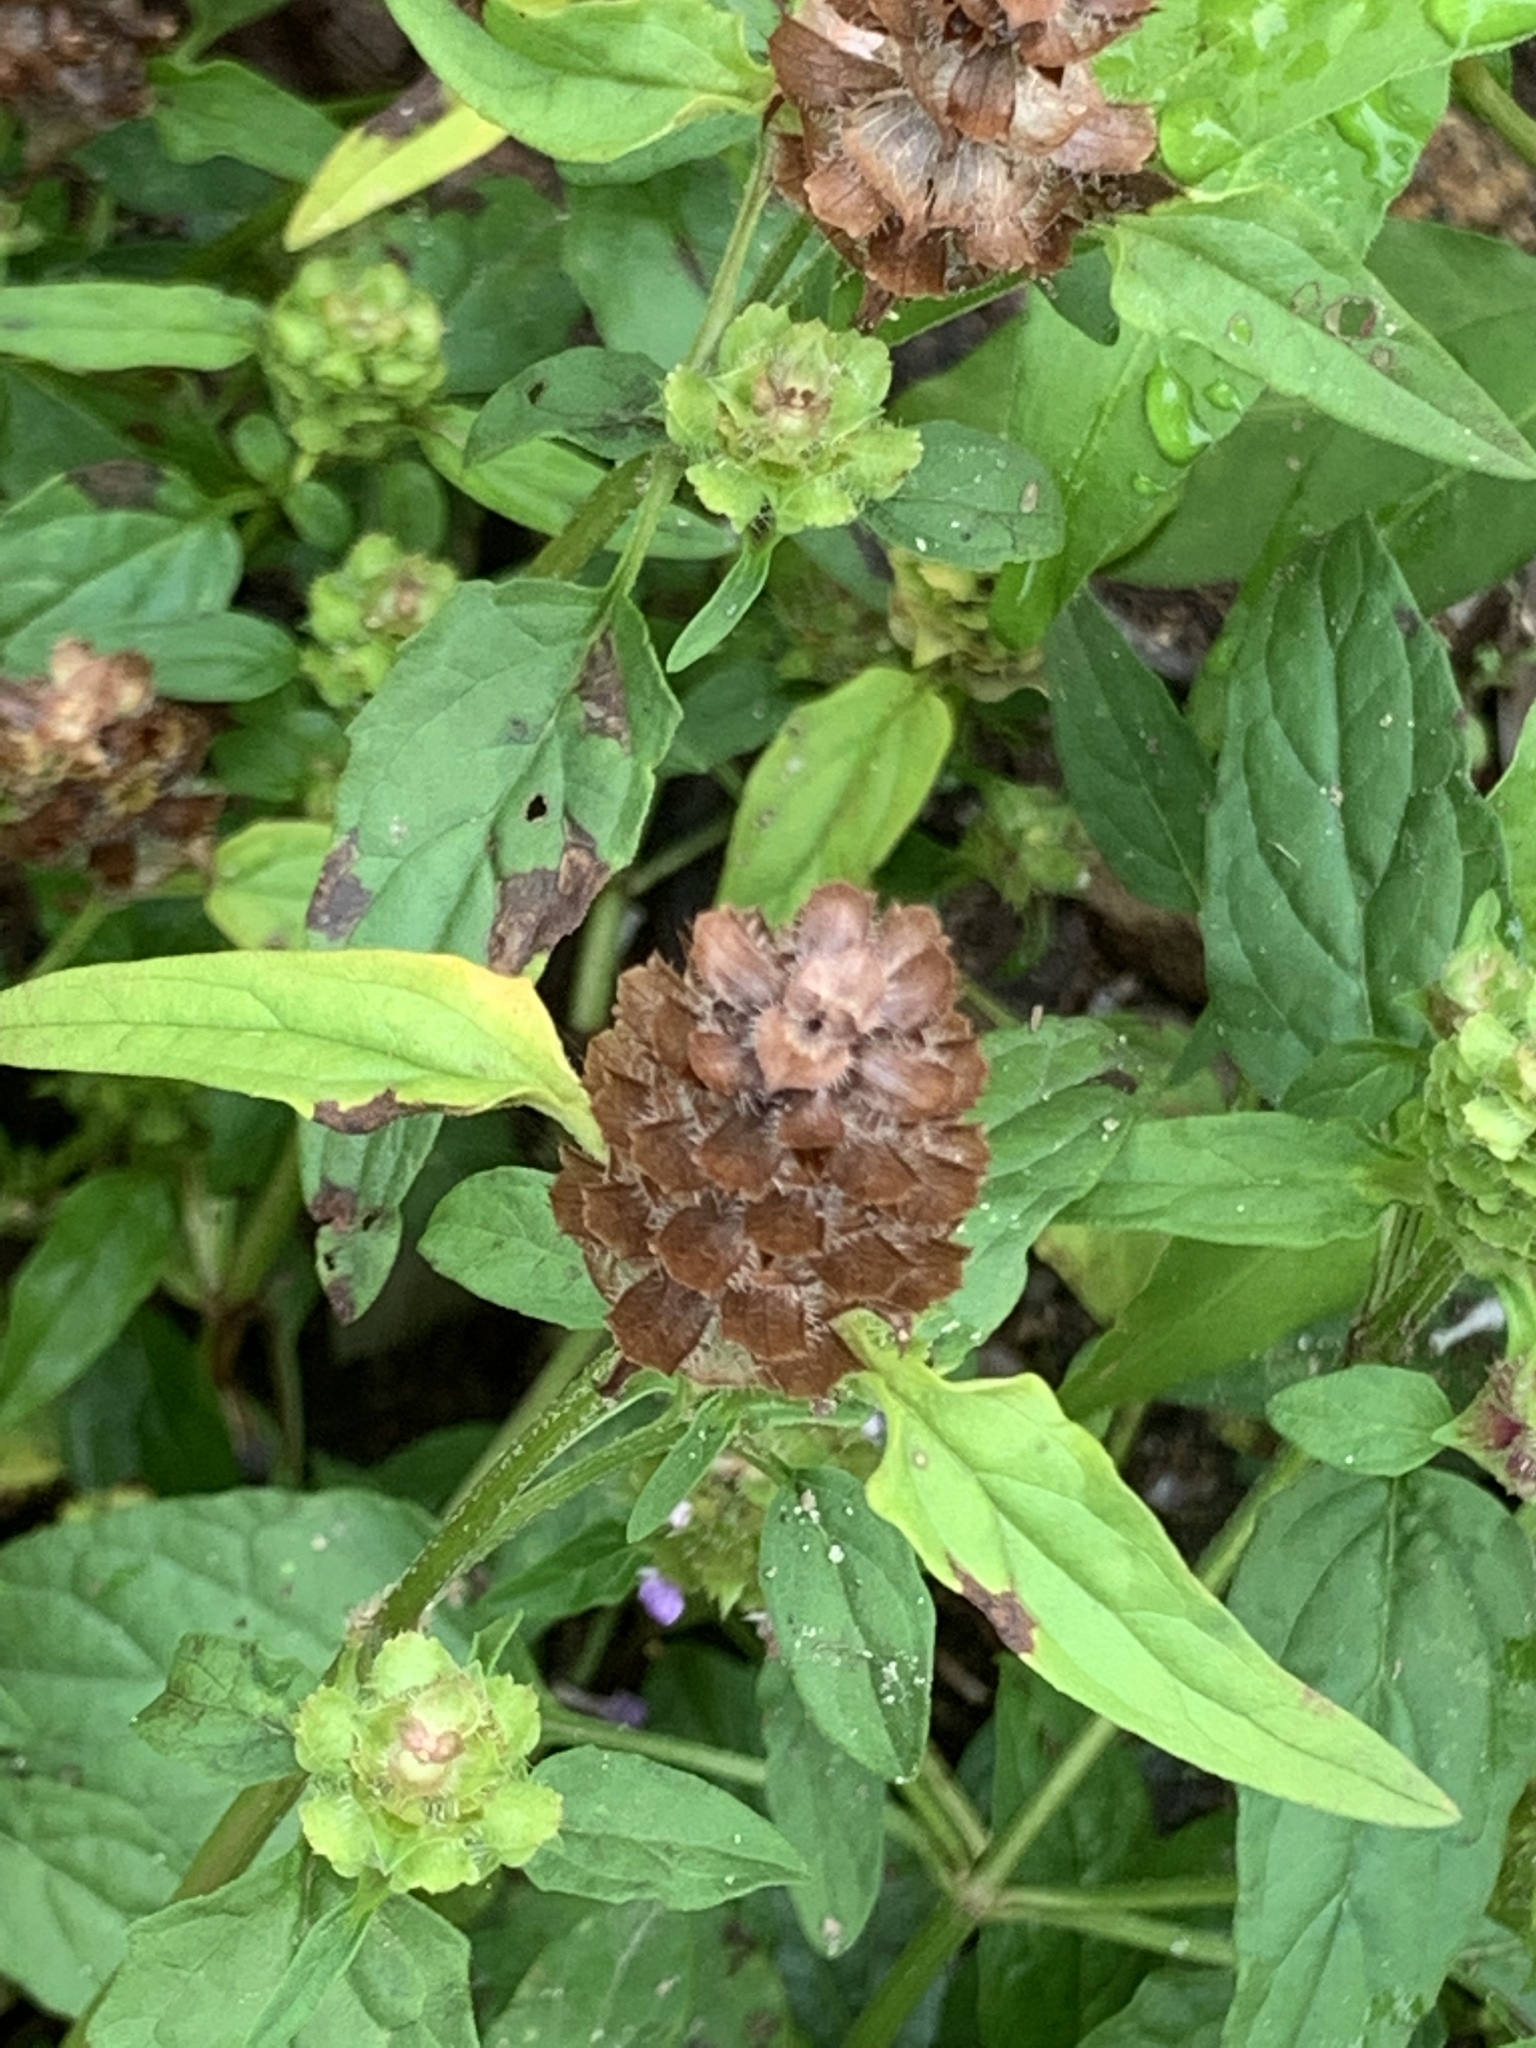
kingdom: Plantae
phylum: Tracheophyta
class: Magnoliopsida
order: Lamiales
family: Lamiaceae
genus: Prunella
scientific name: Prunella vulgaris
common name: Heal-all
